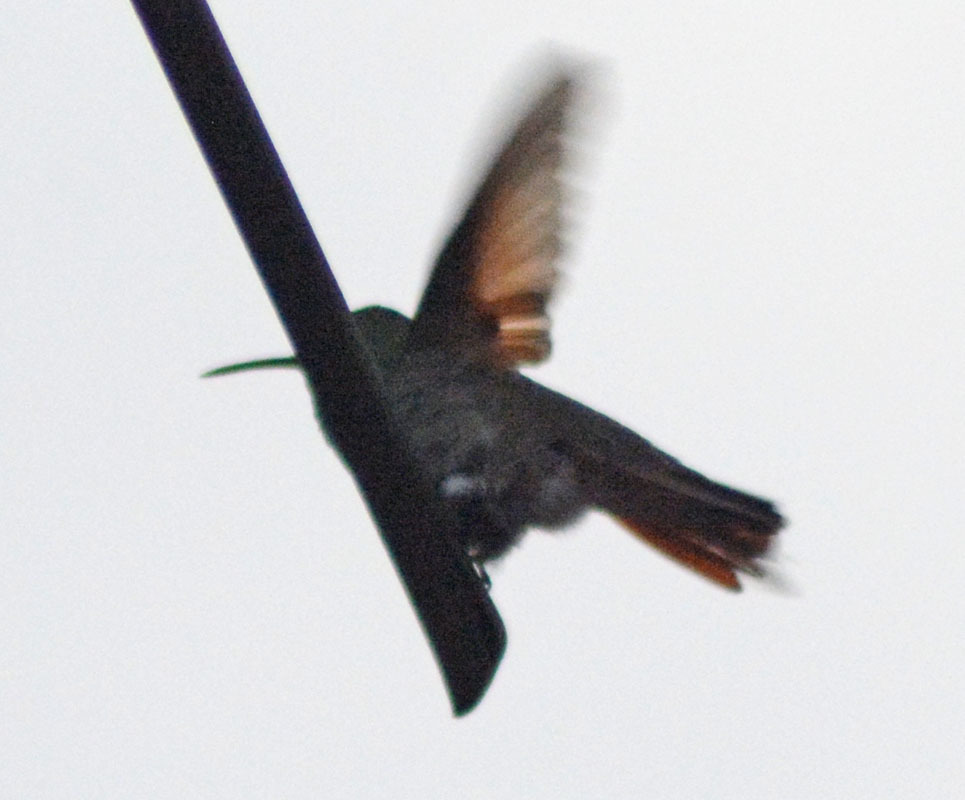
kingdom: Animalia
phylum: Chordata
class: Aves
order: Apodiformes
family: Trochilidae
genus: Saucerottia
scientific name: Saucerottia beryllina
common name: Berylline hummingbird
